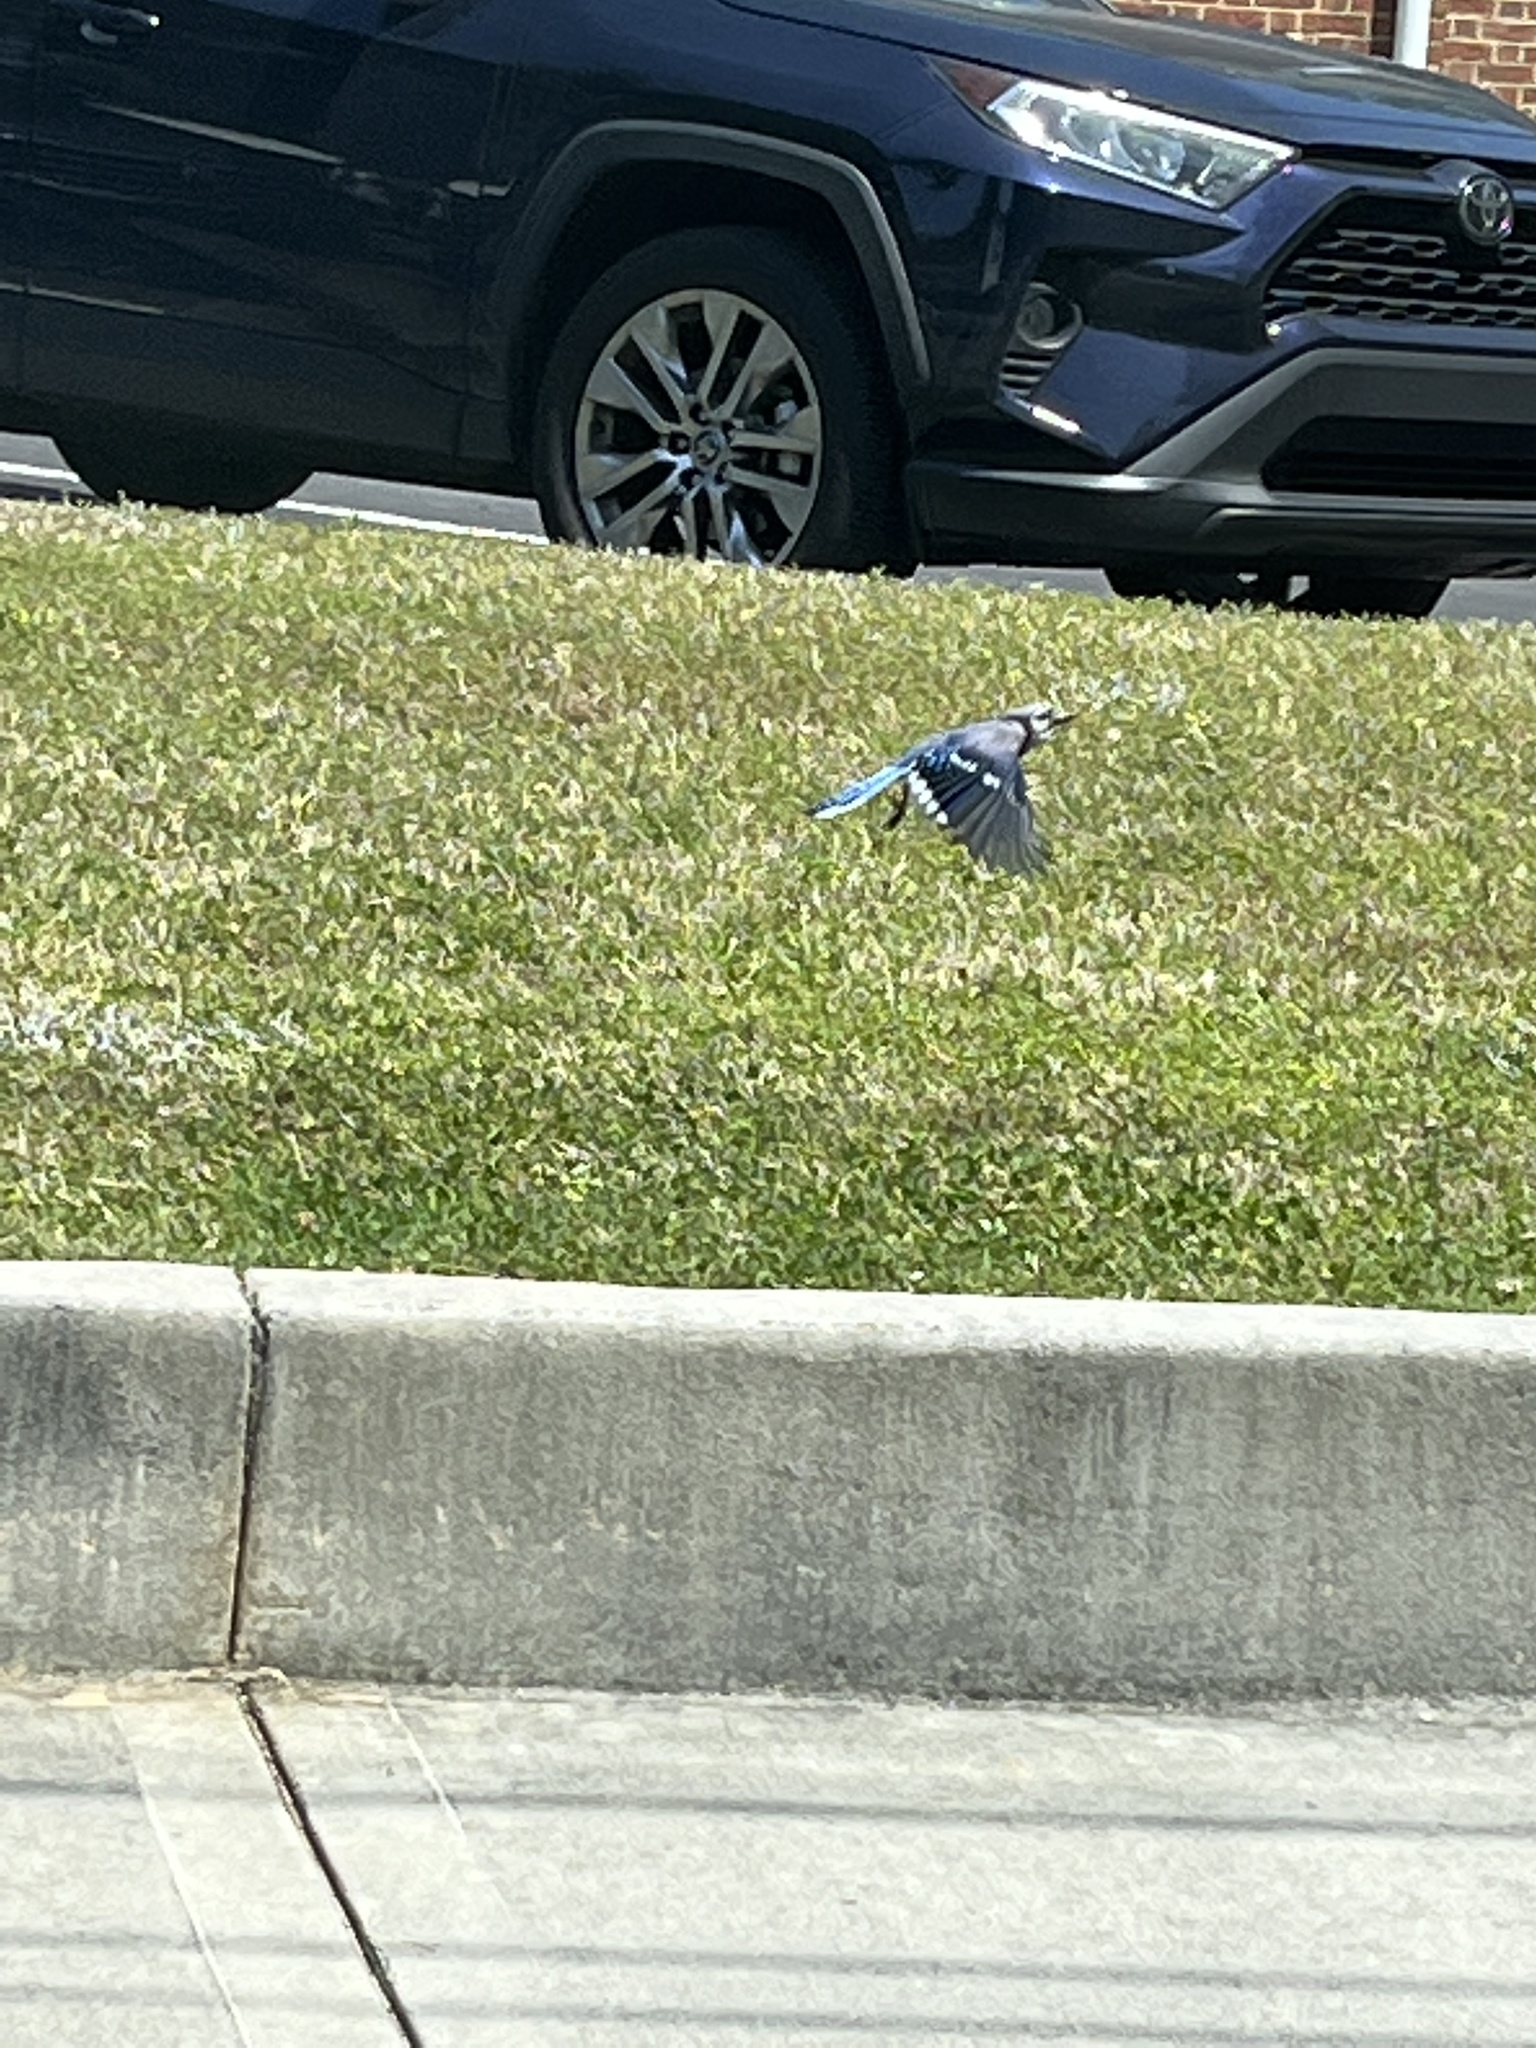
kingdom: Animalia
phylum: Chordata
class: Aves
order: Passeriformes
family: Corvidae
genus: Cyanocitta
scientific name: Cyanocitta cristata
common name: Blue jay
